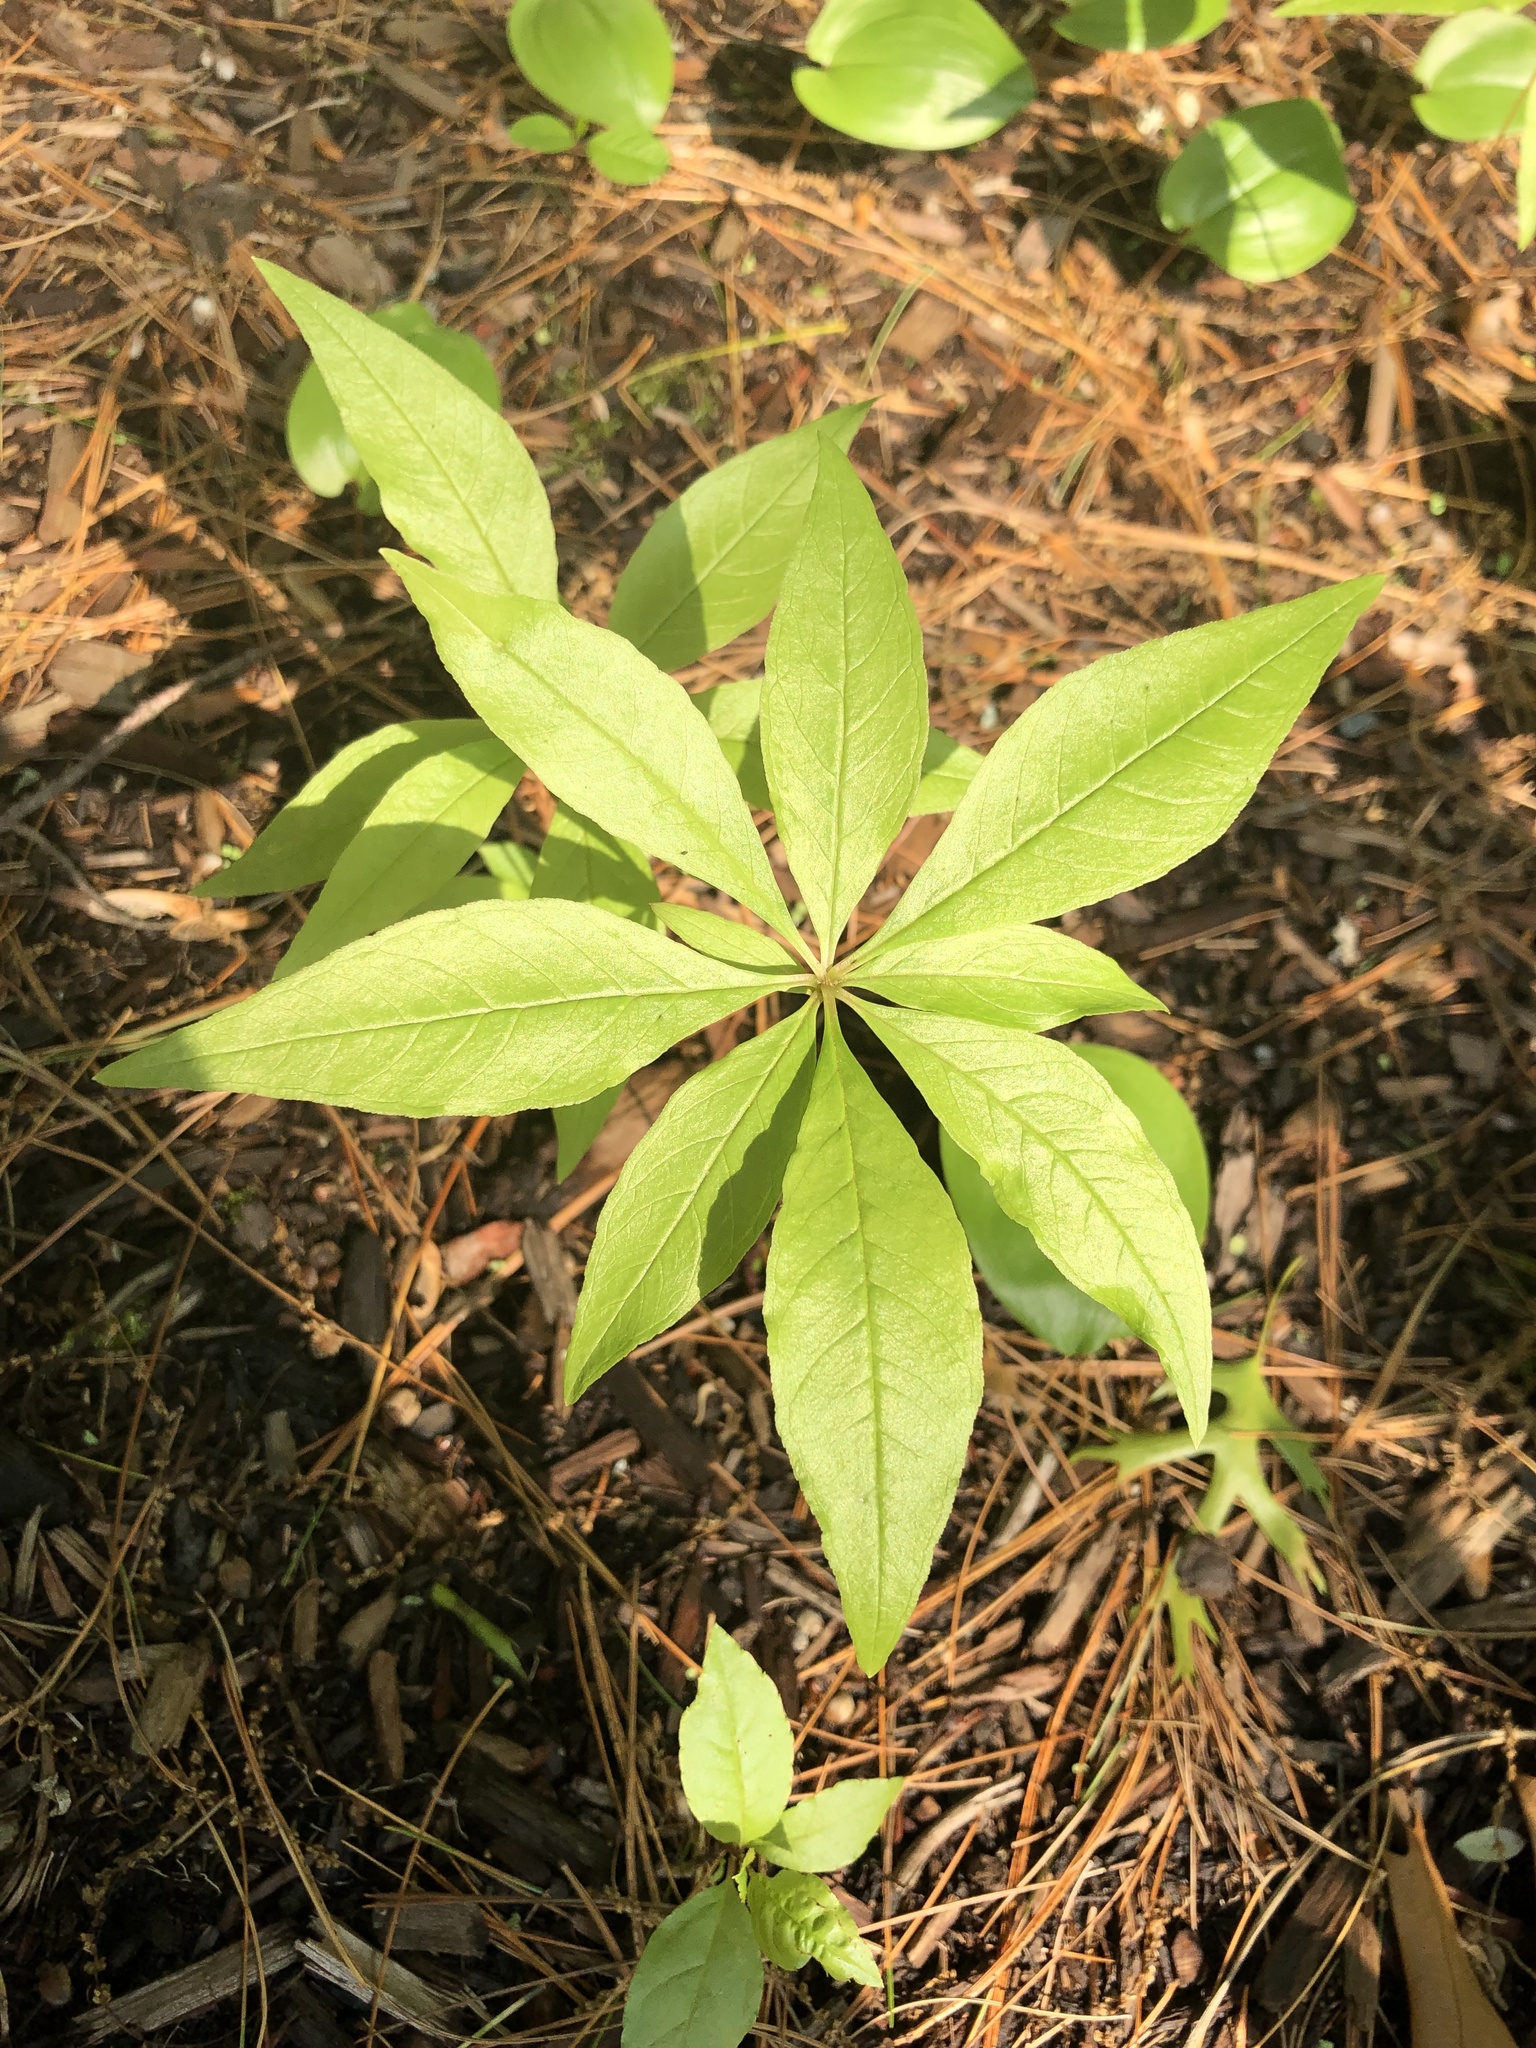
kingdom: Plantae
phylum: Tracheophyta
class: Magnoliopsida
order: Ericales
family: Primulaceae
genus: Lysimachia
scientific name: Lysimachia borealis
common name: American starflower
